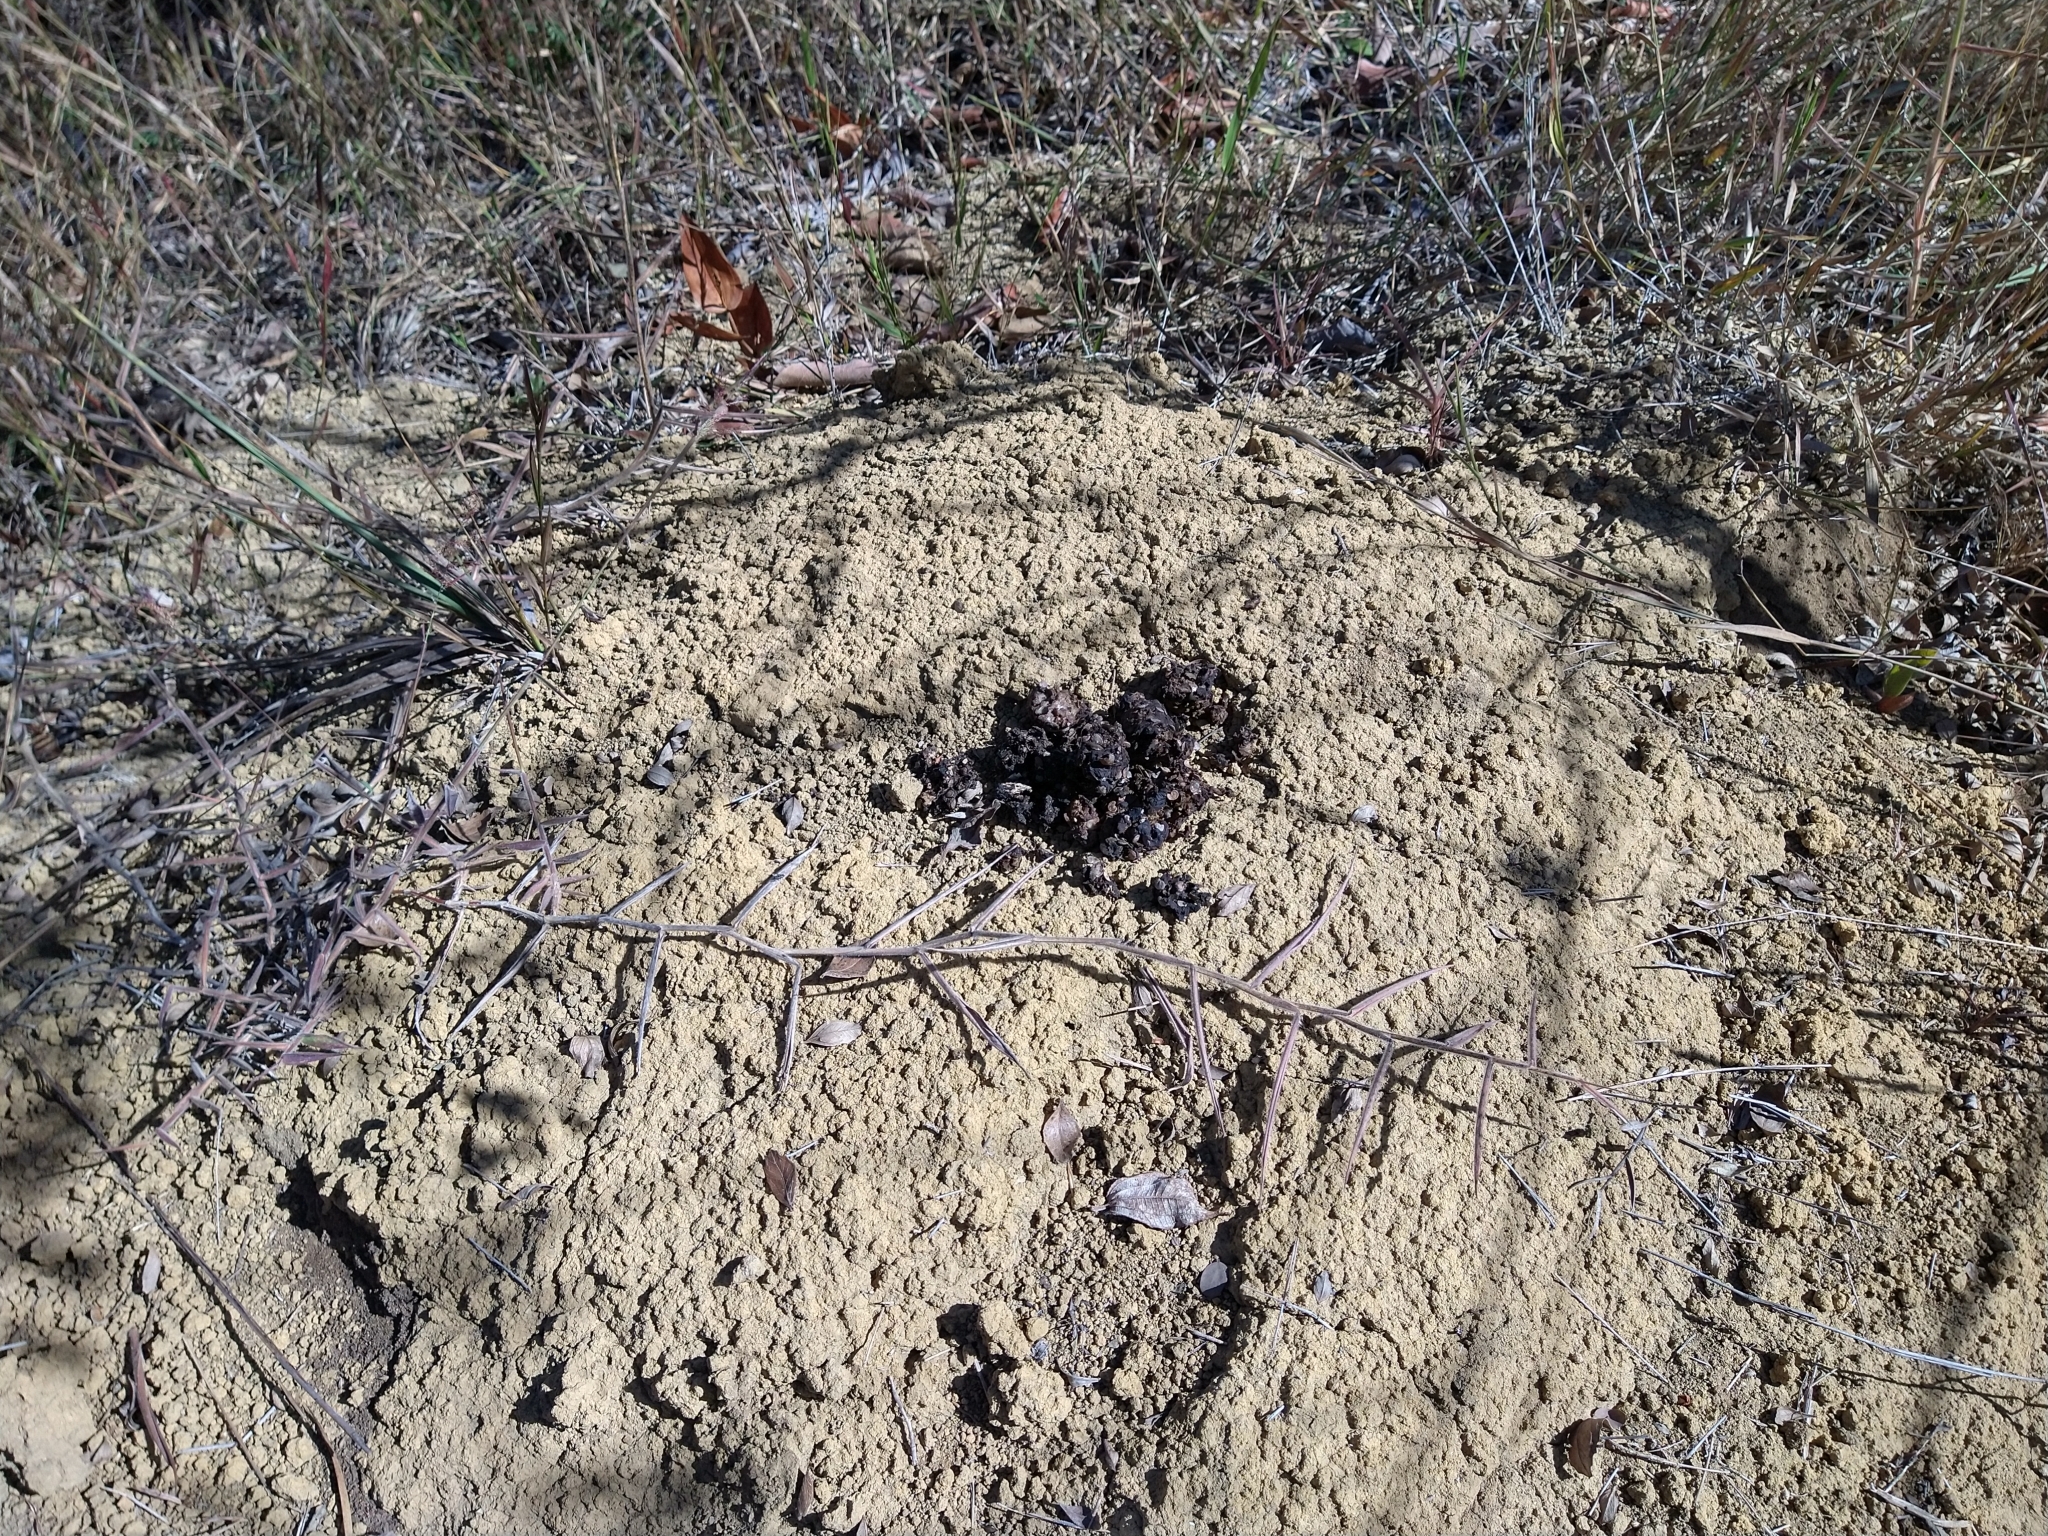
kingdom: Animalia
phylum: Chordata
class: Mammalia
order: Carnivora
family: Canidae
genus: Chrysocyon
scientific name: Chrysocyon brachyurus
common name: Maned wolf
